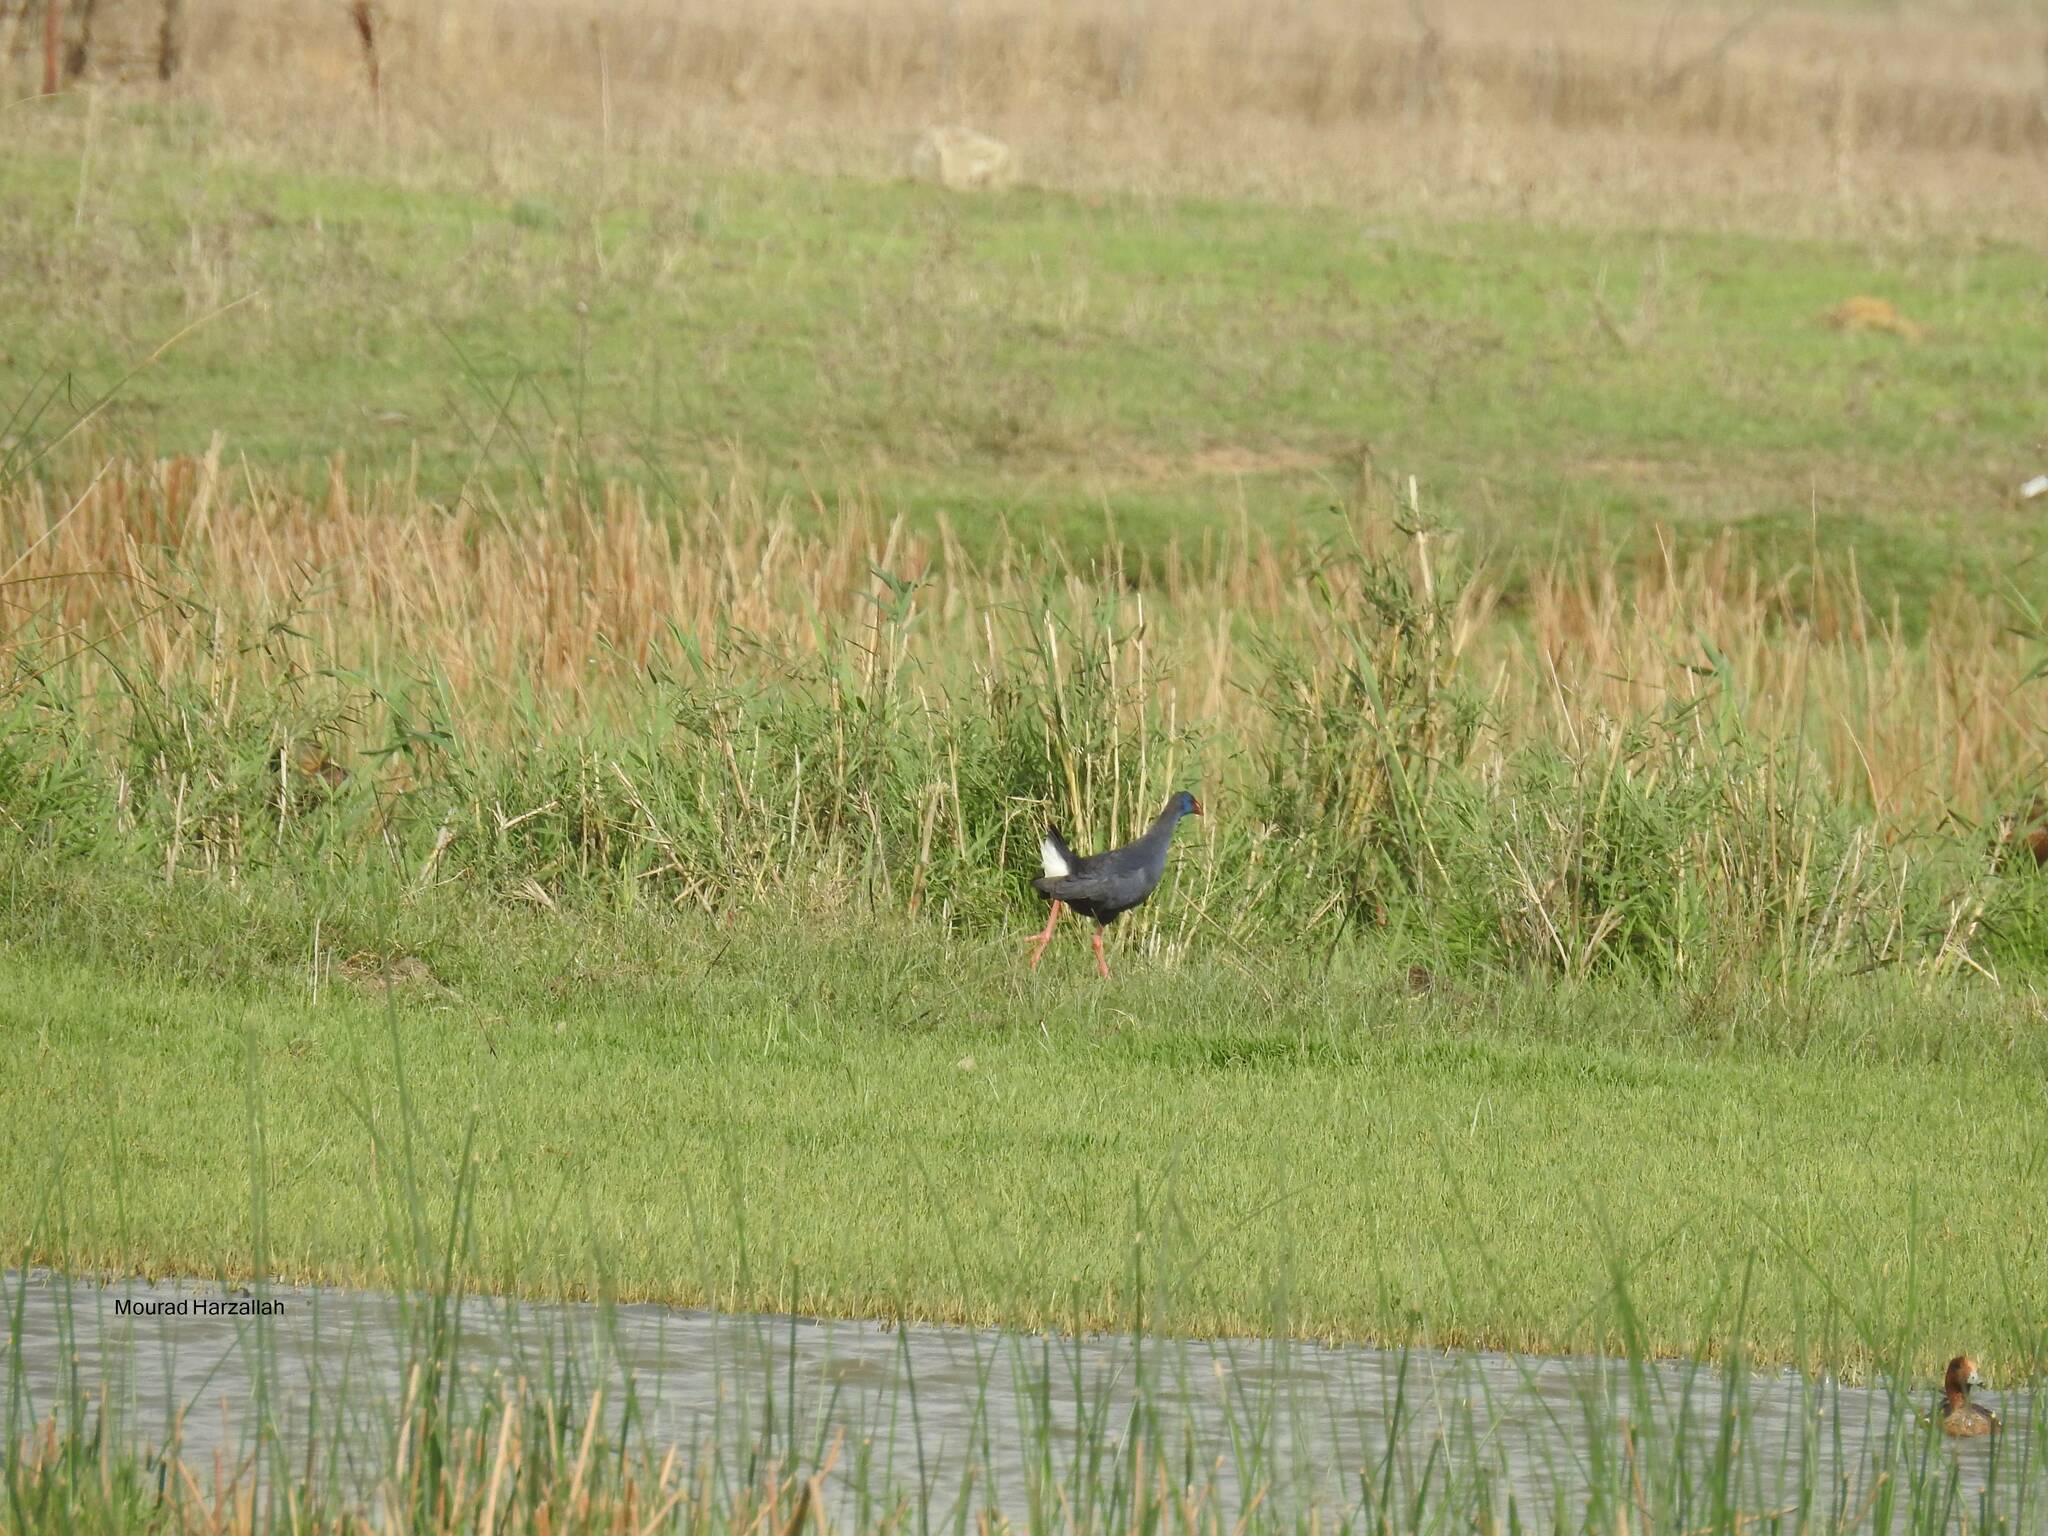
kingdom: Animalia
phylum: Chordata
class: Aves
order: Gruiformes
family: Rallidae
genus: Porphyrio
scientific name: Porphyrio porphyrio
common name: Purple swamphen
